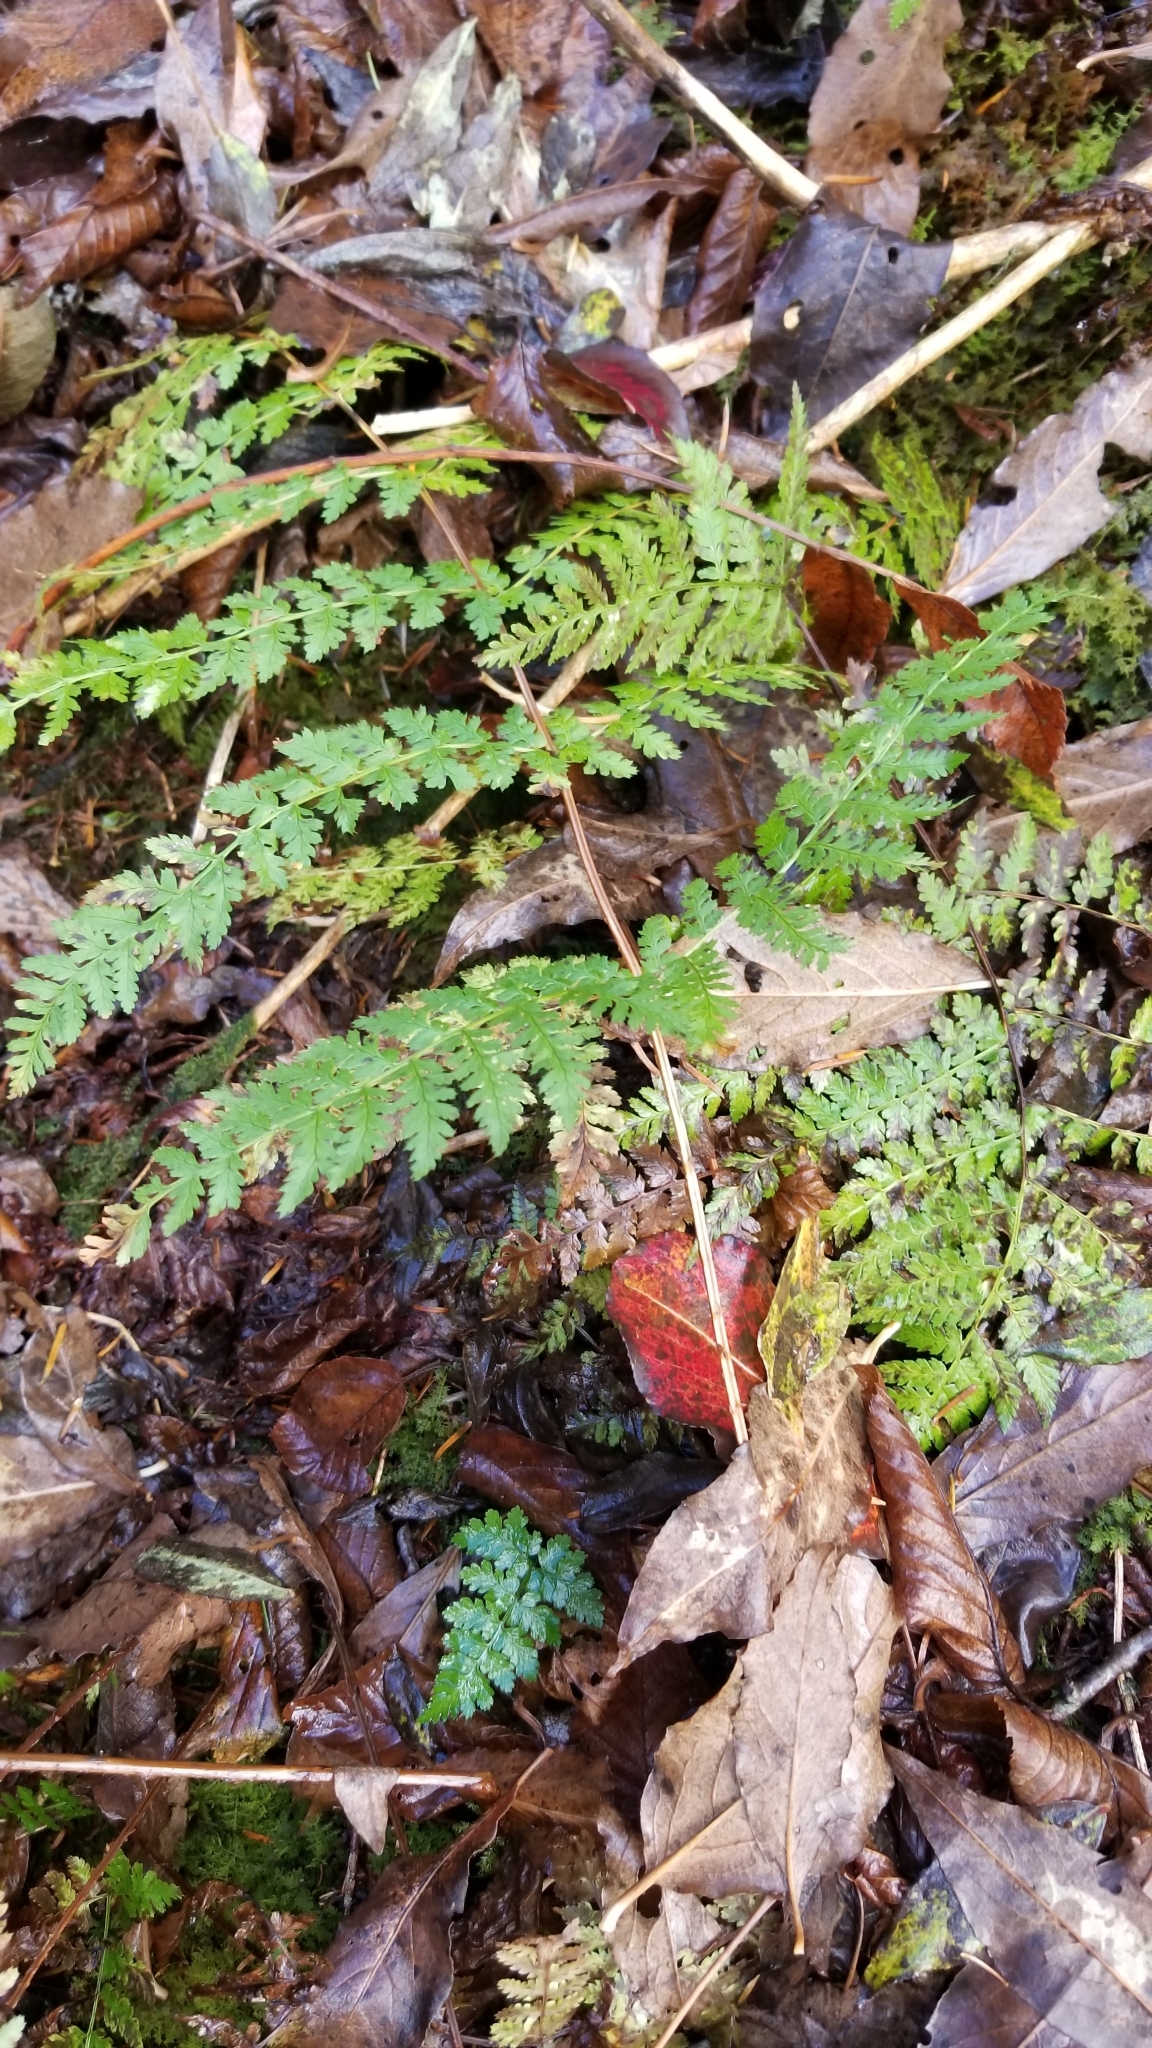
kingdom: Plantae
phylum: Tracheophyta
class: Polypodiopsida
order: Polypodiales
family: Dryopteridaceae
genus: Dryopteris
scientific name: Dryopteris intermedia
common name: Evergreen wood fern
